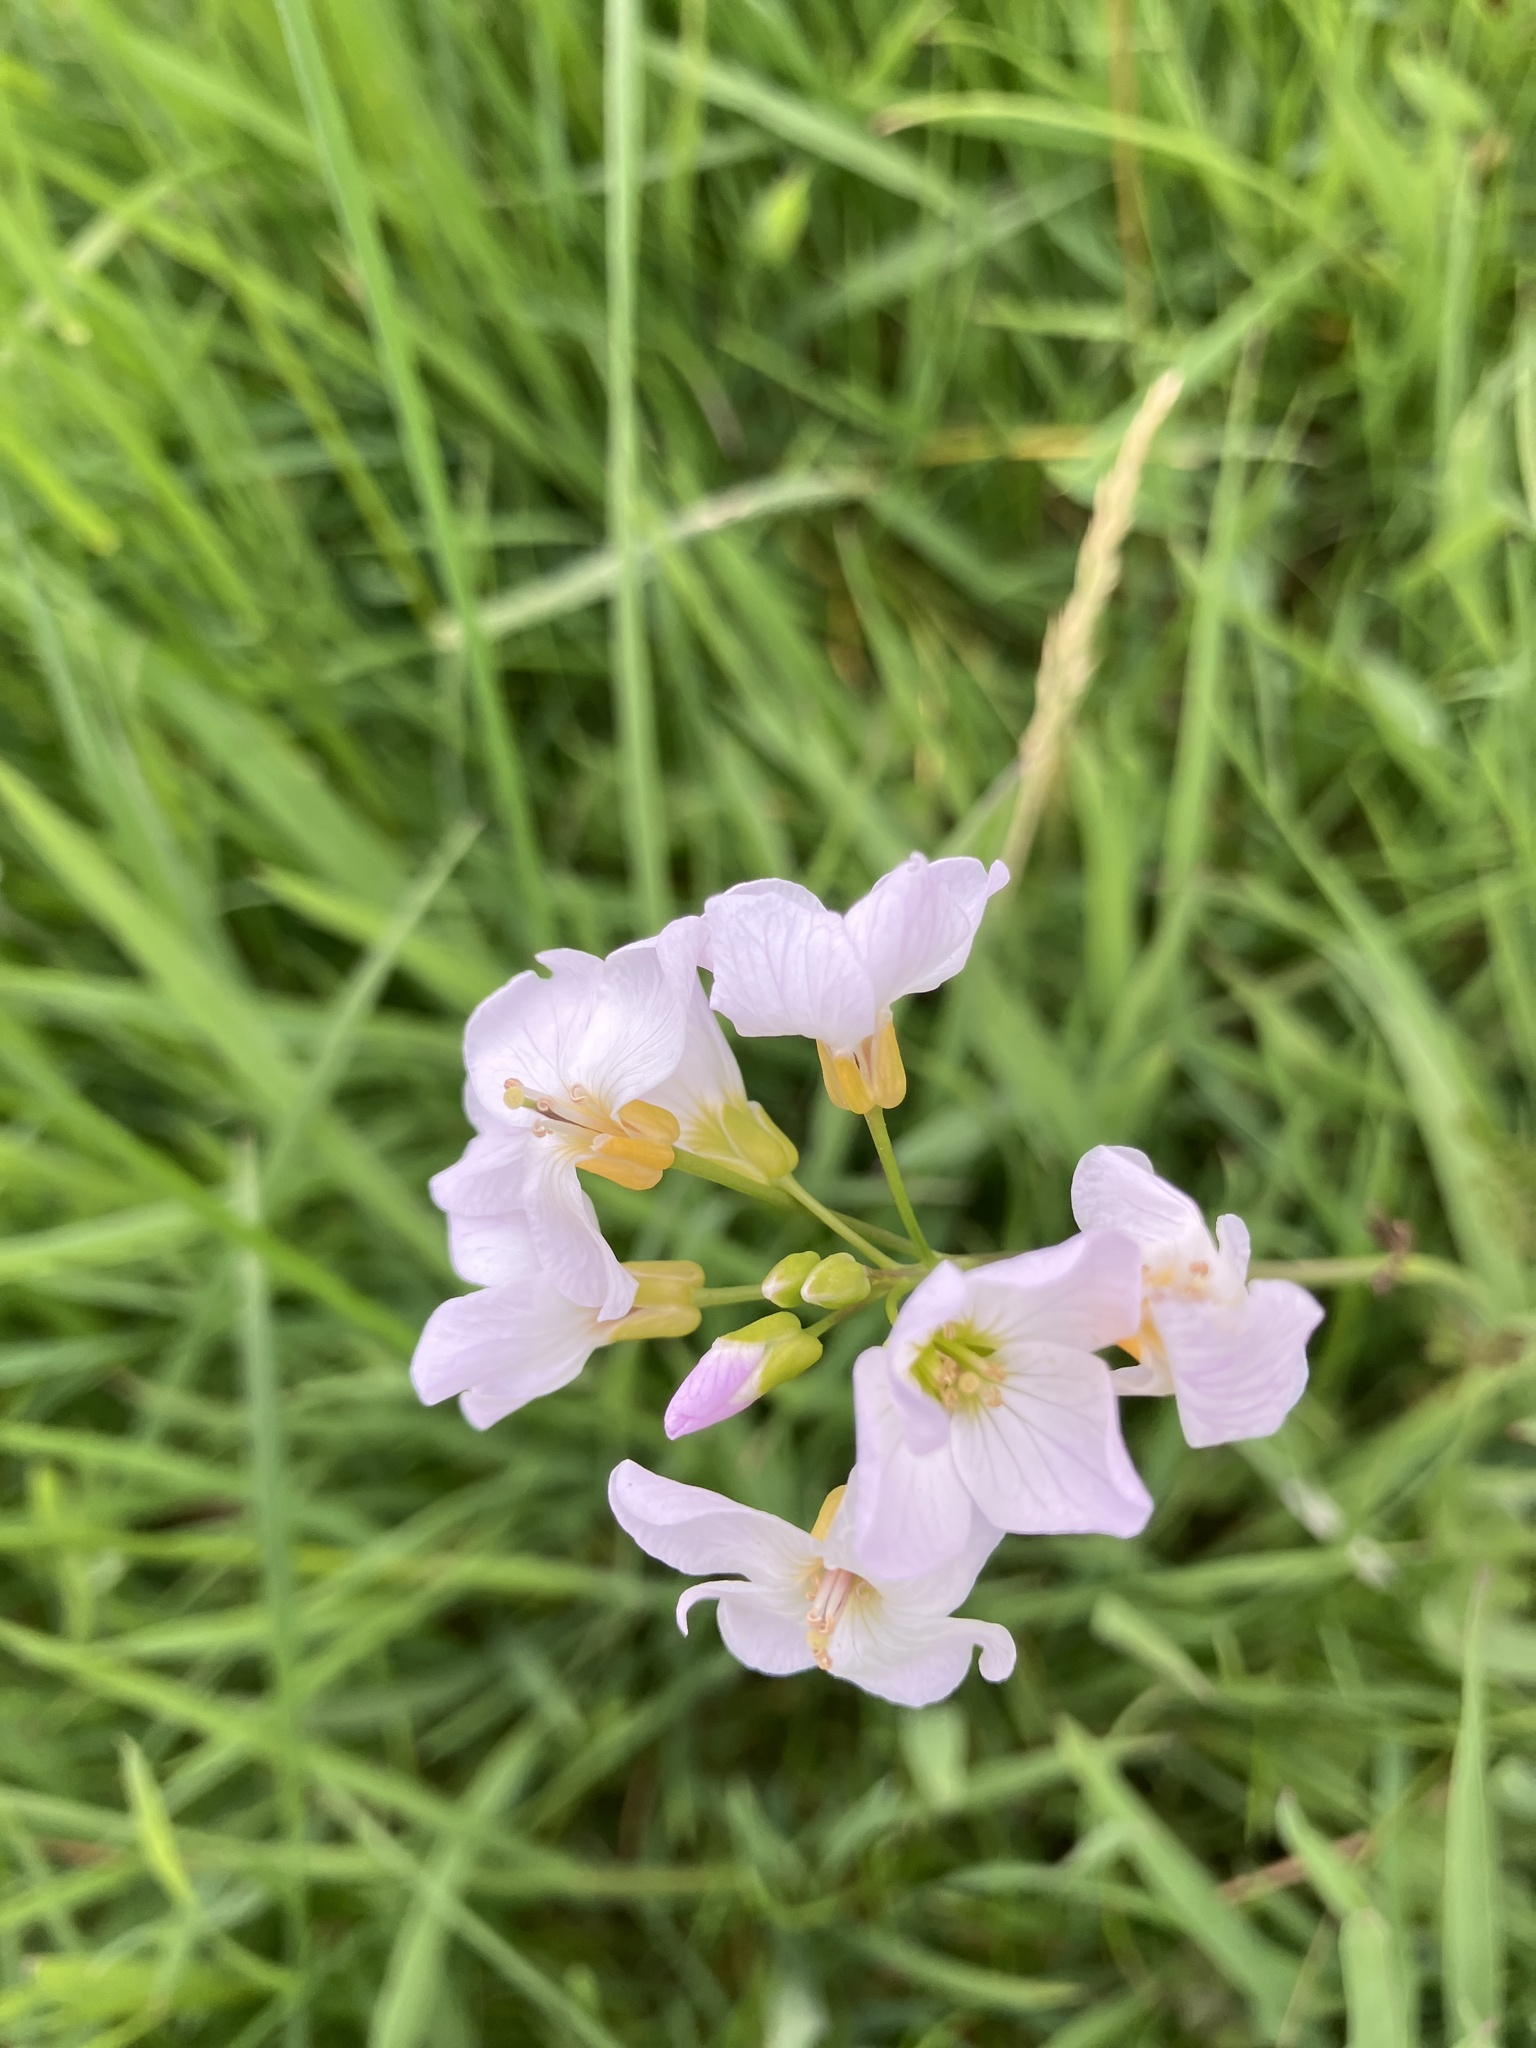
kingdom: Plantae
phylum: Tracheophyta
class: Magnoliopsida
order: Brassicales
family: Brassicaceae
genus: Cardamine
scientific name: Cardamine pratensis
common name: Cuckoo flower
